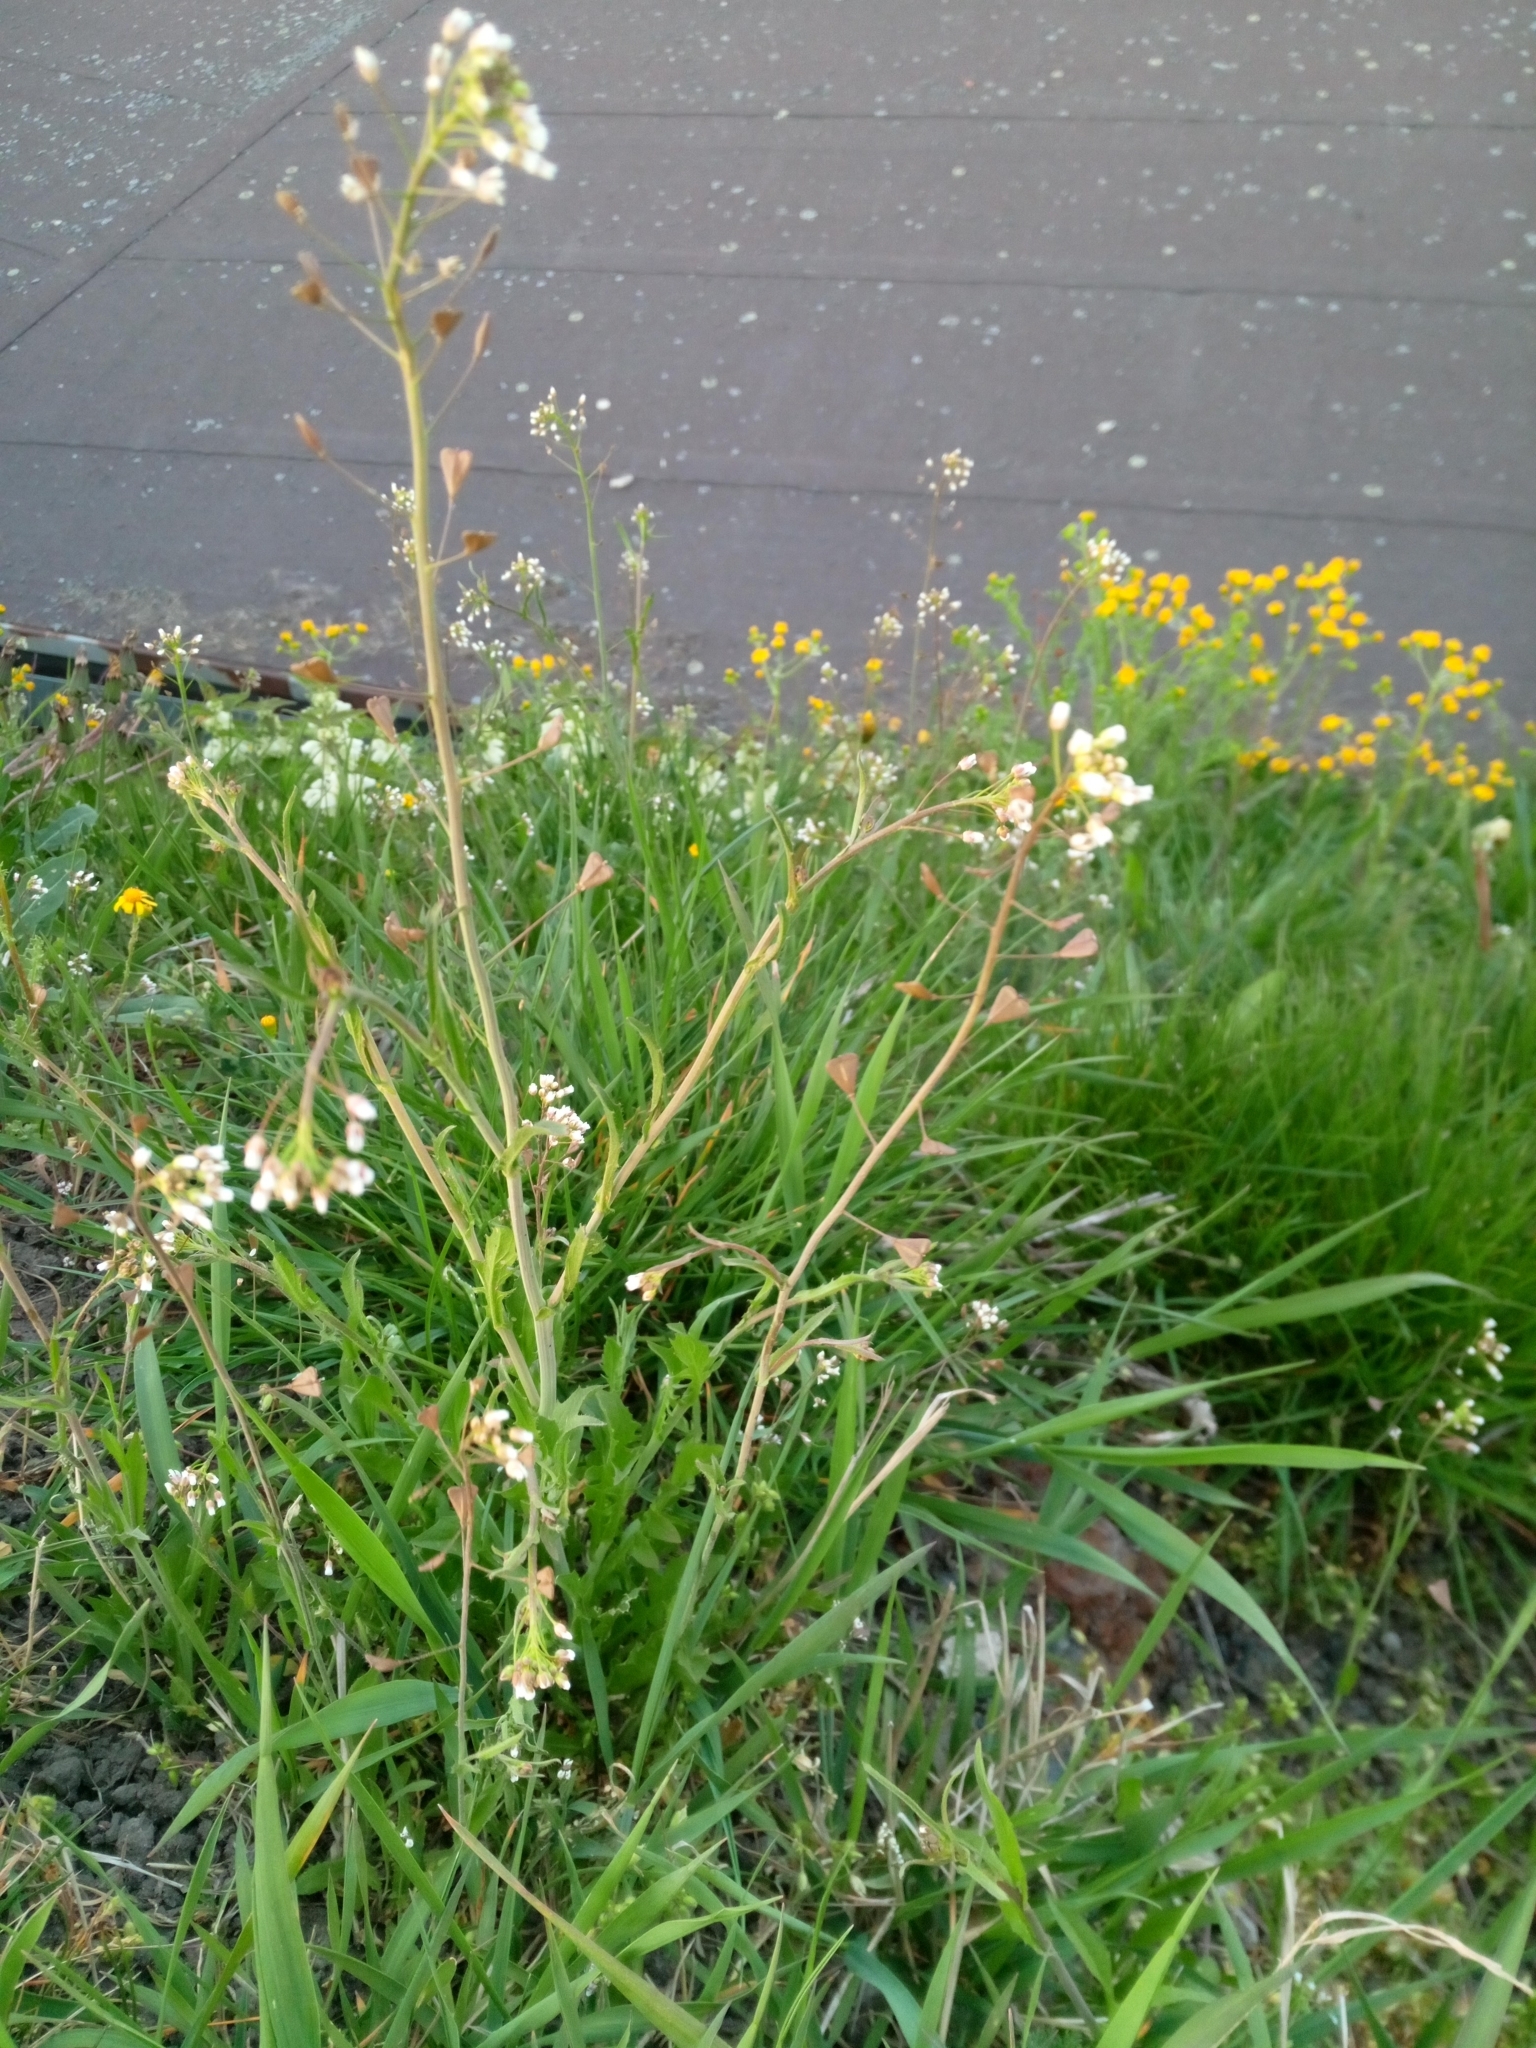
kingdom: Plantae
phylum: Tracheophyta
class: Magnoliopsida
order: Brassicales
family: Brassicaceae
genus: Capsella
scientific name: Capsella bursa-pastoris
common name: Shepherd's purse
